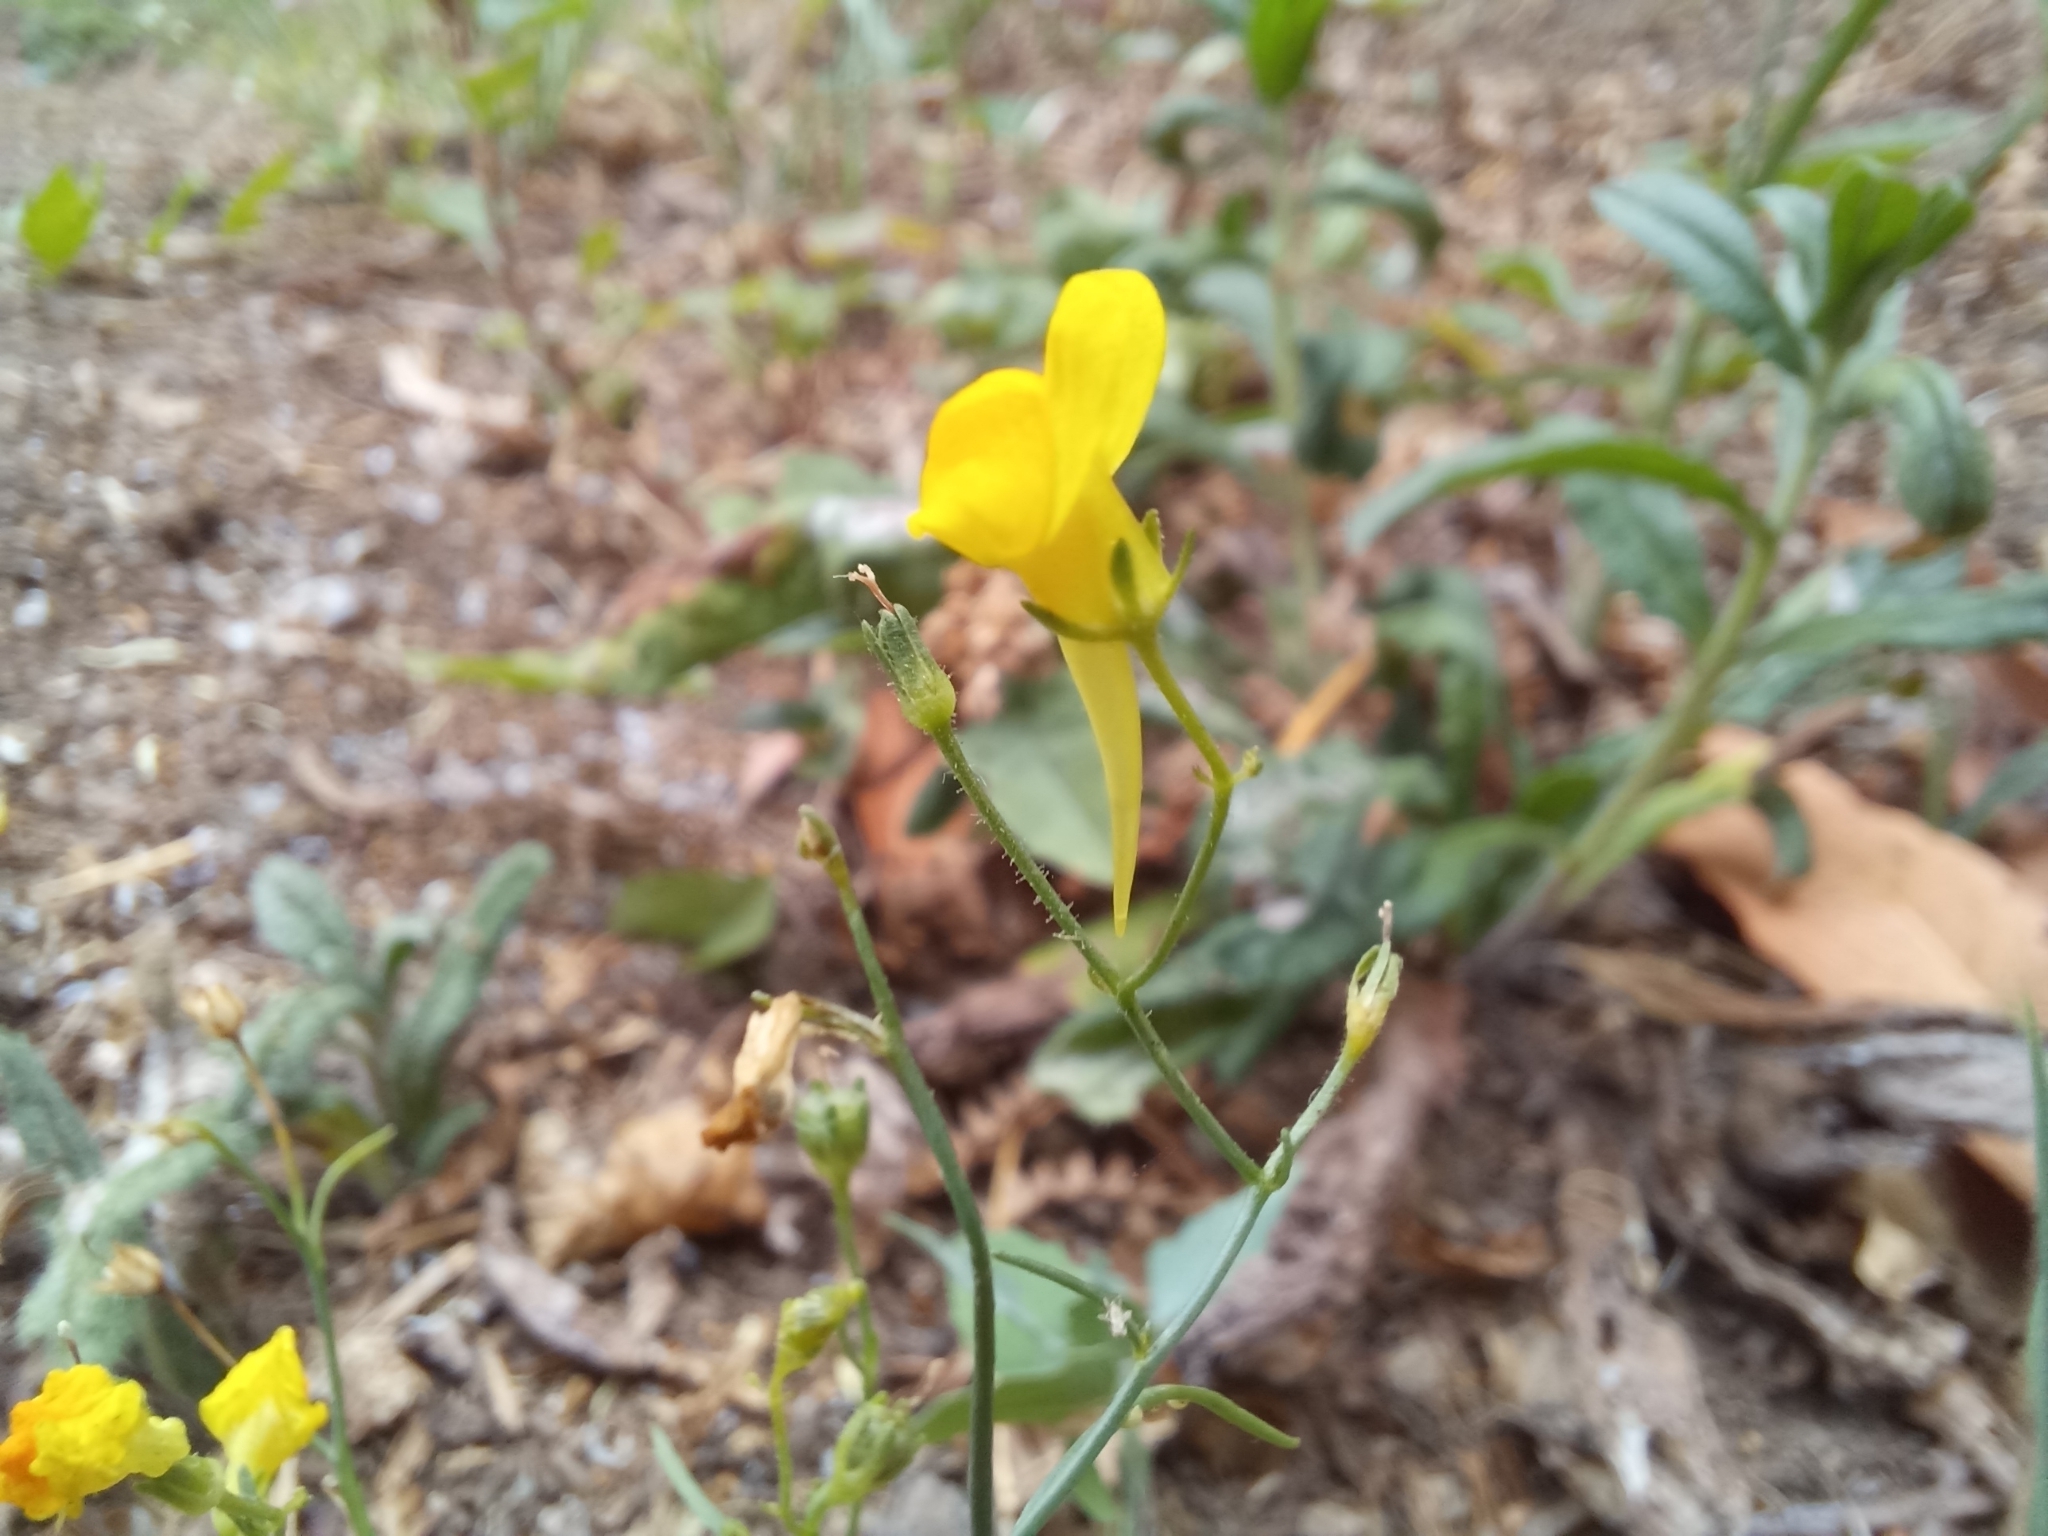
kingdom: Plantae
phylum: Tracheophyta
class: Magnoliopsida
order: Lamiales
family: Plantaginaceae
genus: Linaria
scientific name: Linaria spartea
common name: Ballast toadflax
